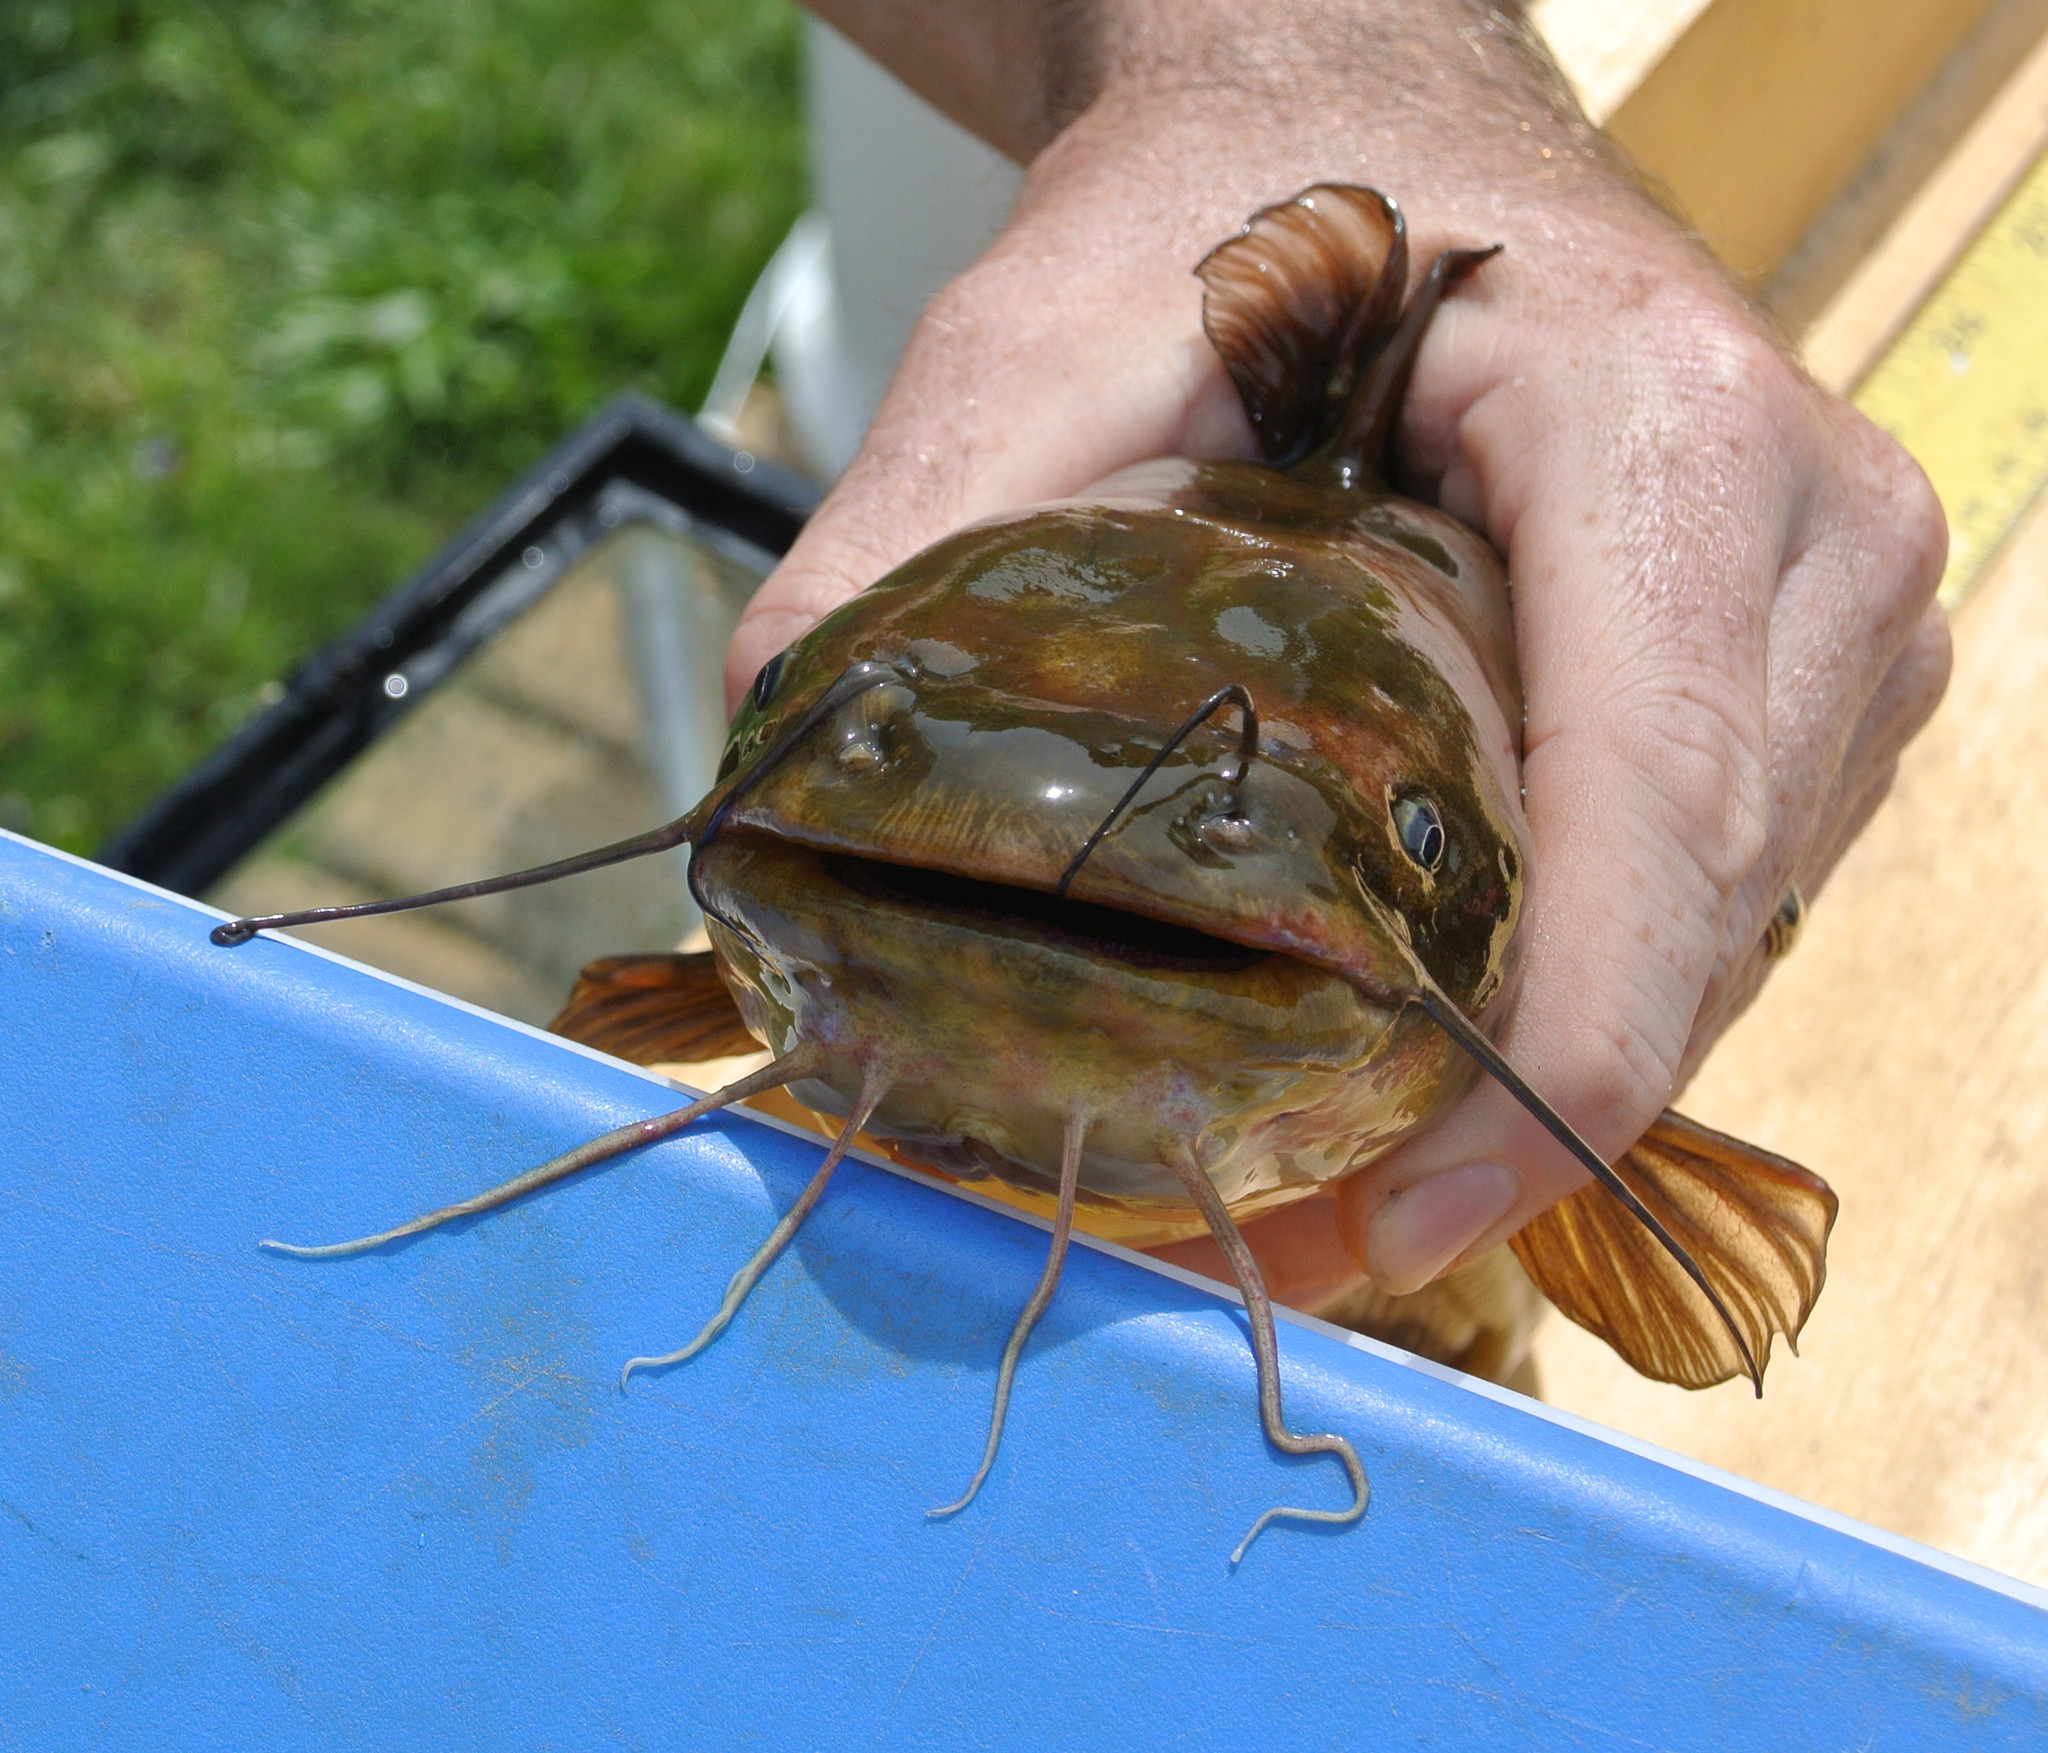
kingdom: Animalia
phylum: Chordata
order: Siluriformes
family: Ictaluridae
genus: Ameiurus
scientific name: Ameiurus natalis
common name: Yellow bullhead
